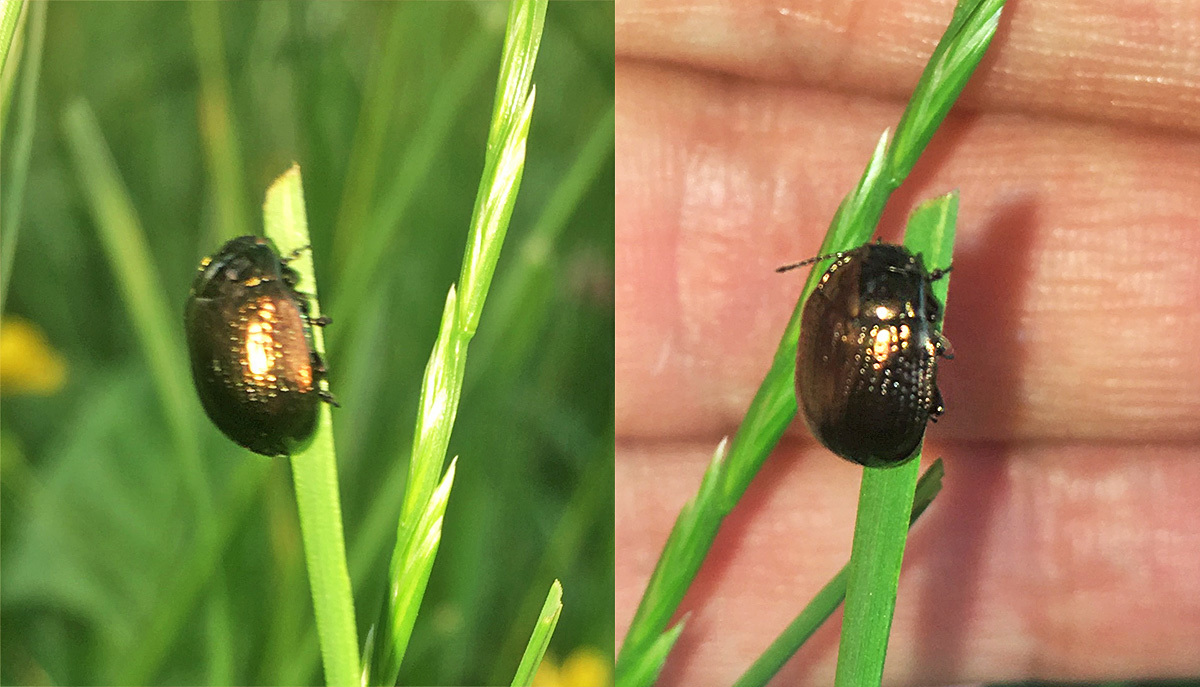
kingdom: Animalia
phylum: Arthropoda
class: Insecta
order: Coleoptera
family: Chrysomelidae
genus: Chrysolina
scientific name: Chrysolina oricalcia
